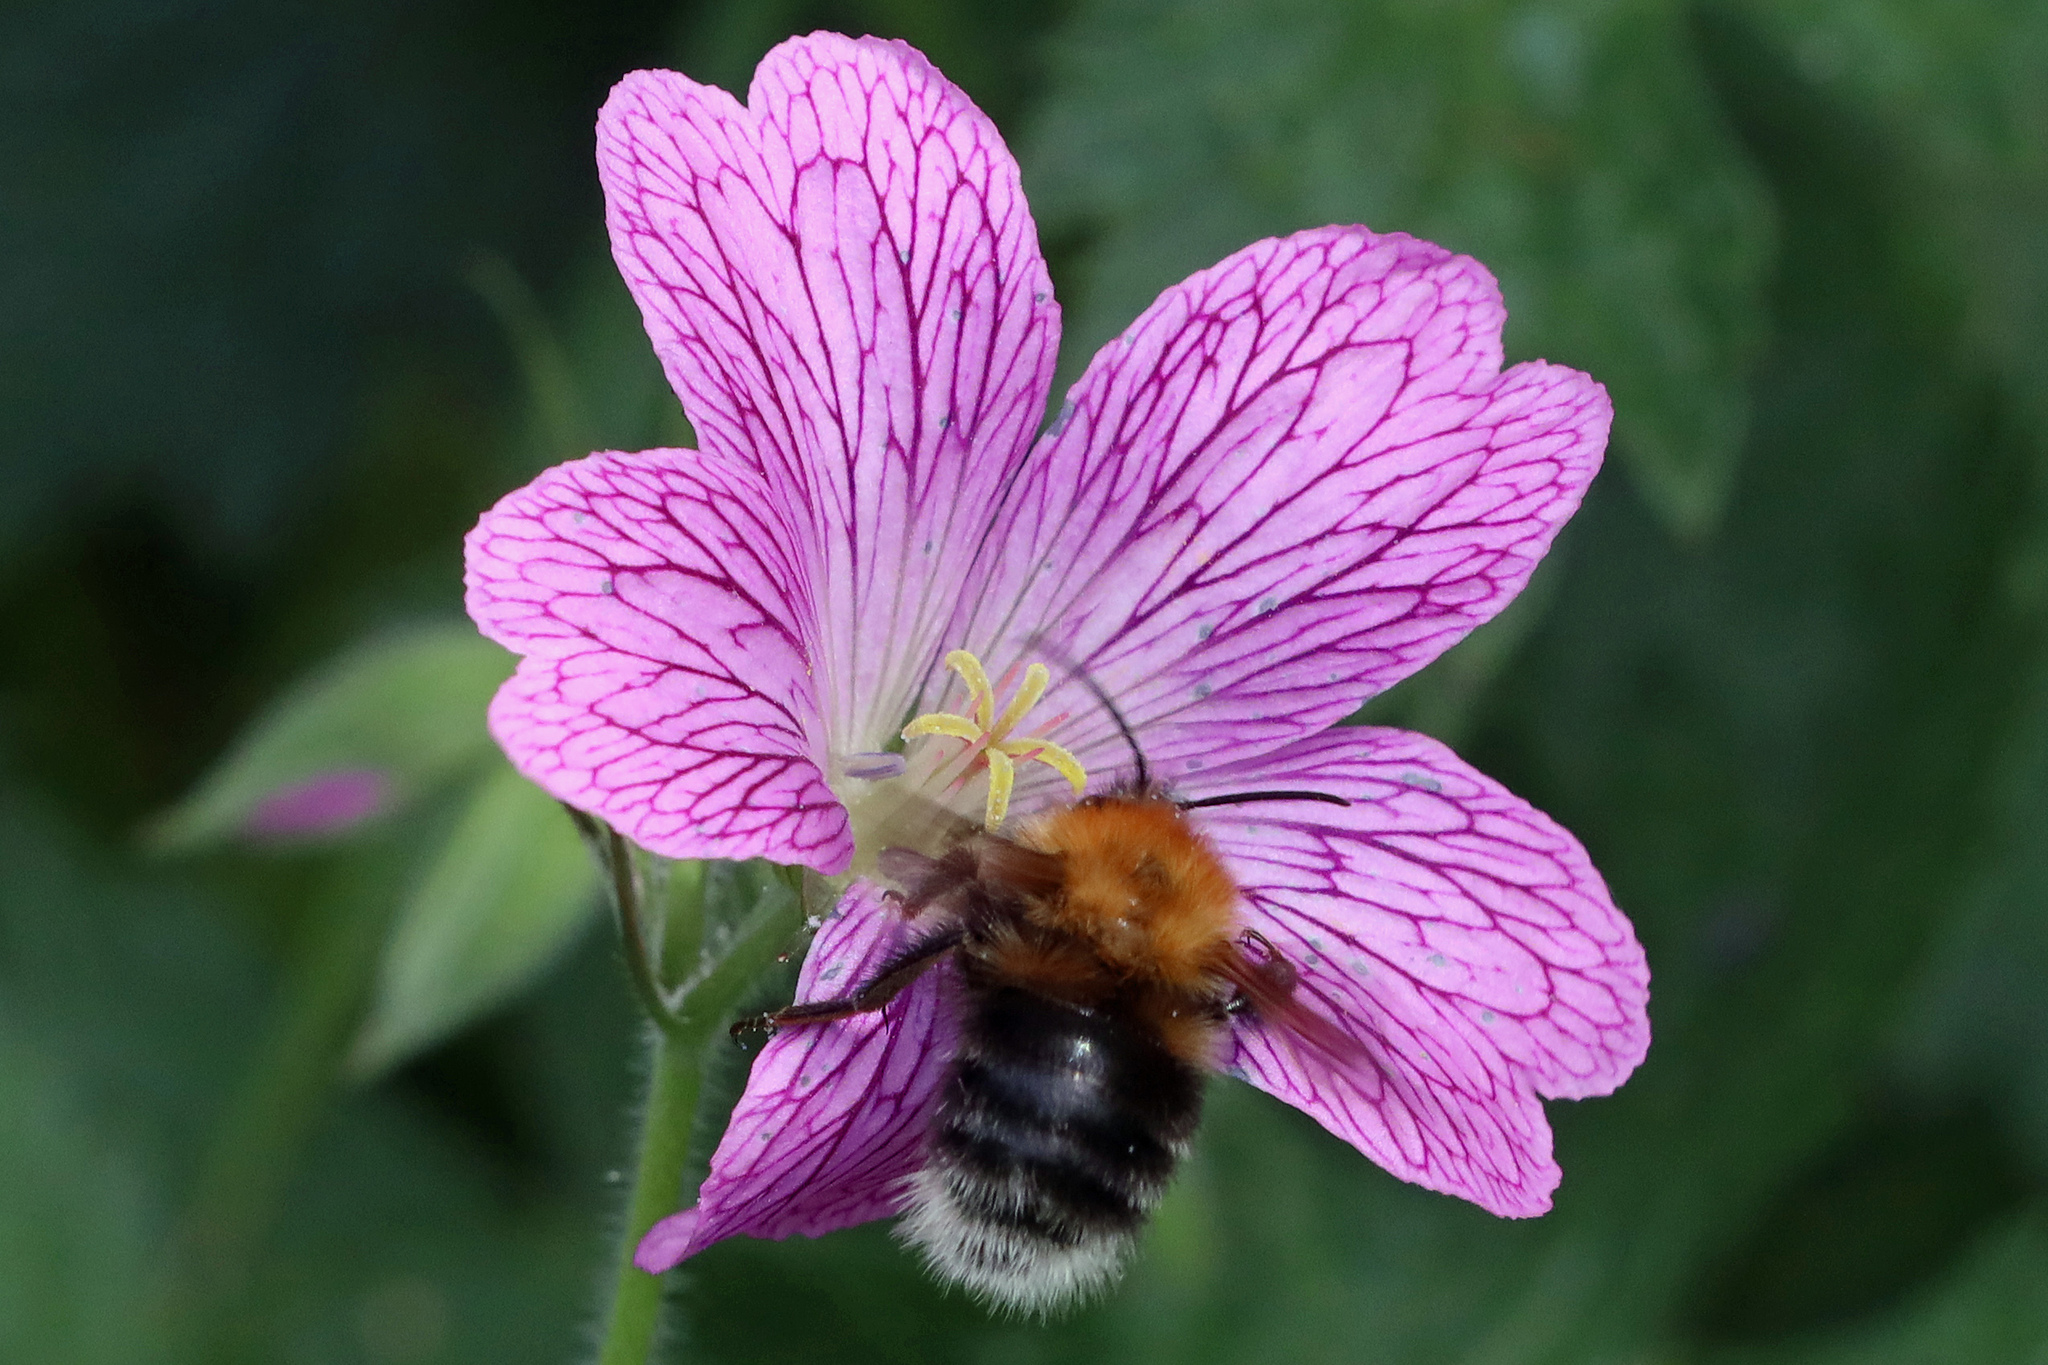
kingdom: Animalia
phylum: Arthropoda
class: Insecta
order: Hymenoptera
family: Apidae
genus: Bombus
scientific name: Bombus hypnorum
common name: New garden bumblebee
